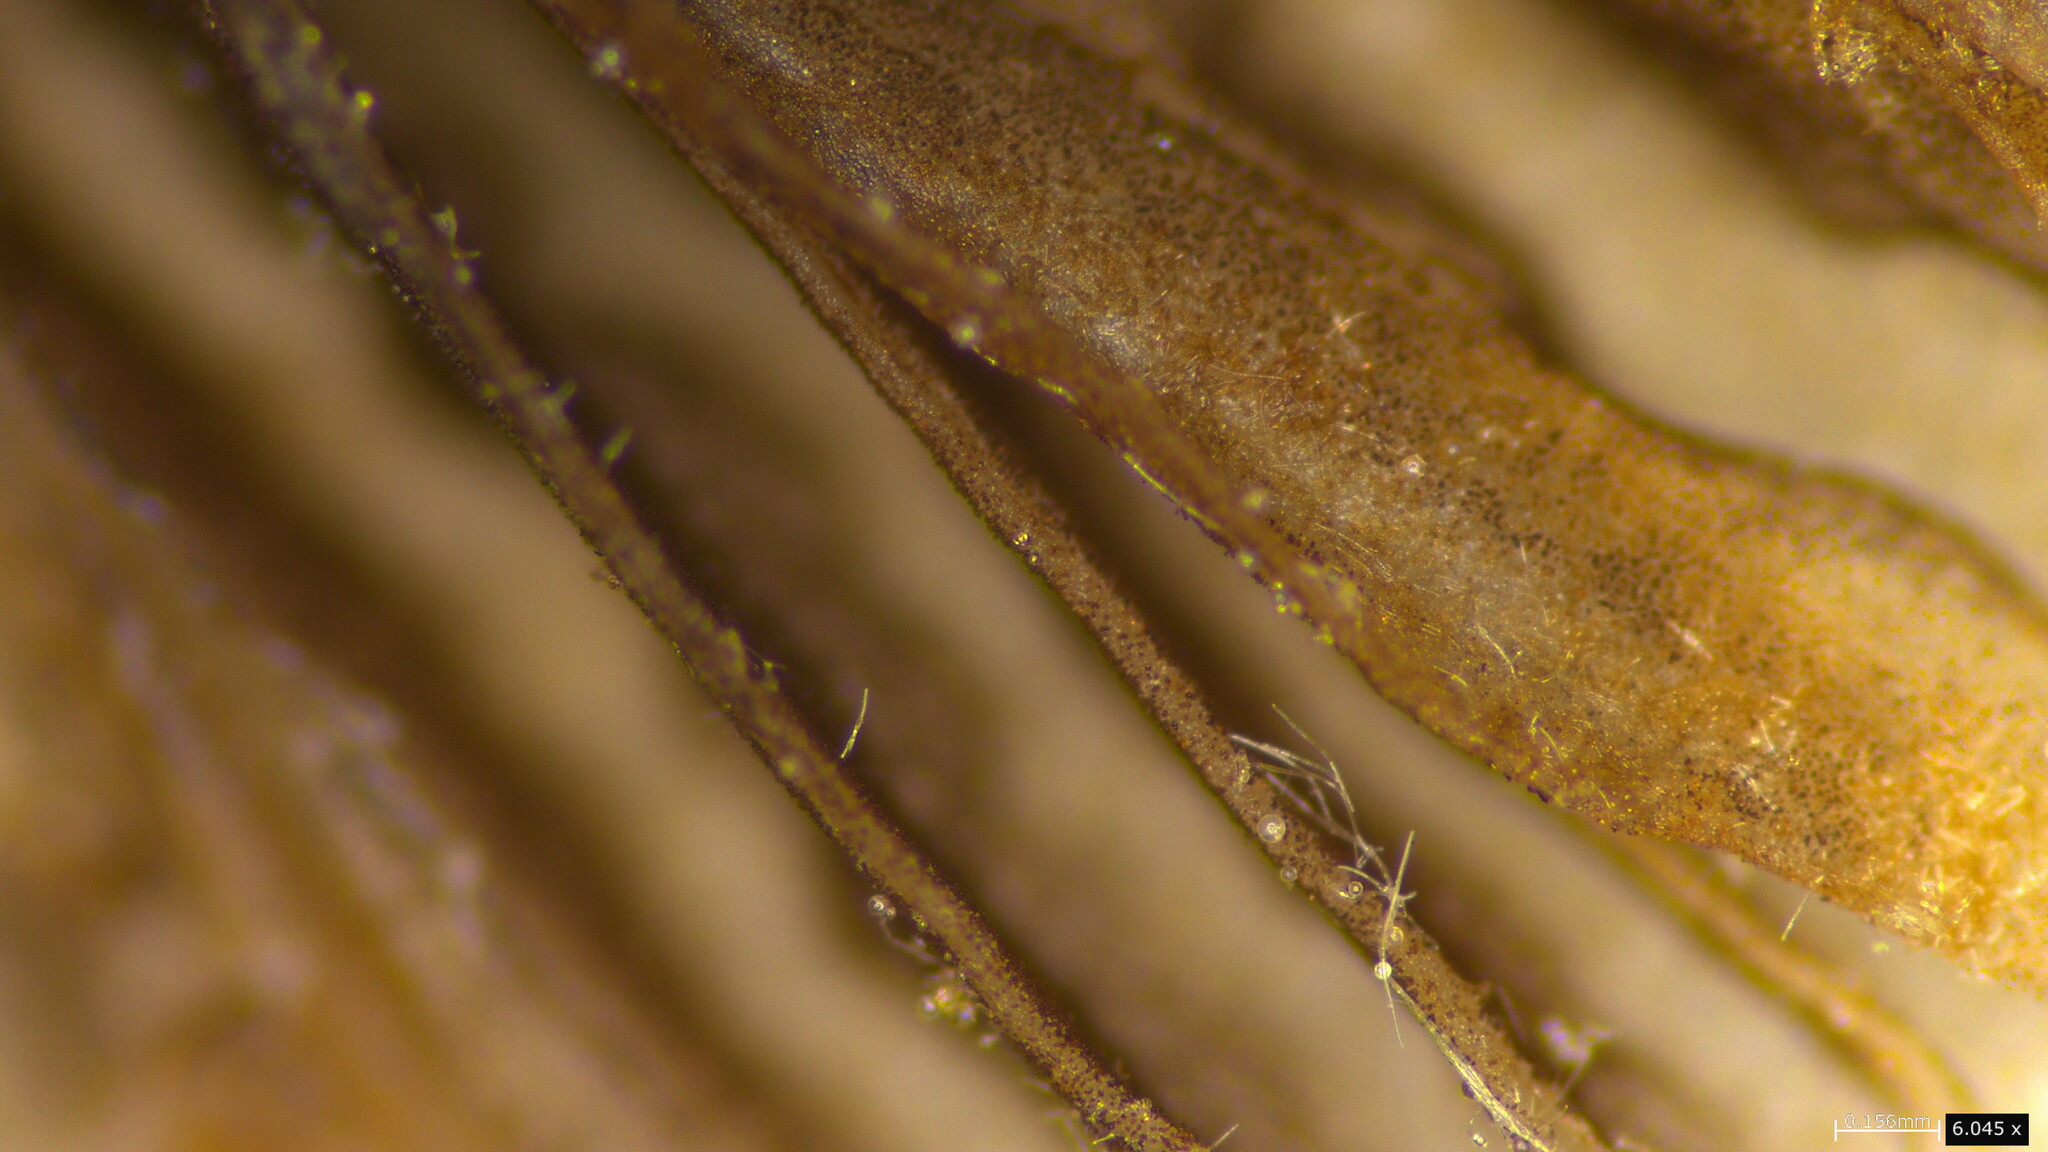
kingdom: Fungi
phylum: Basidiomycota
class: Agaricomycetes
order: Agaricales
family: Psathyrellaceae
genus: Tulosesus
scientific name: Tulosesus aokii
